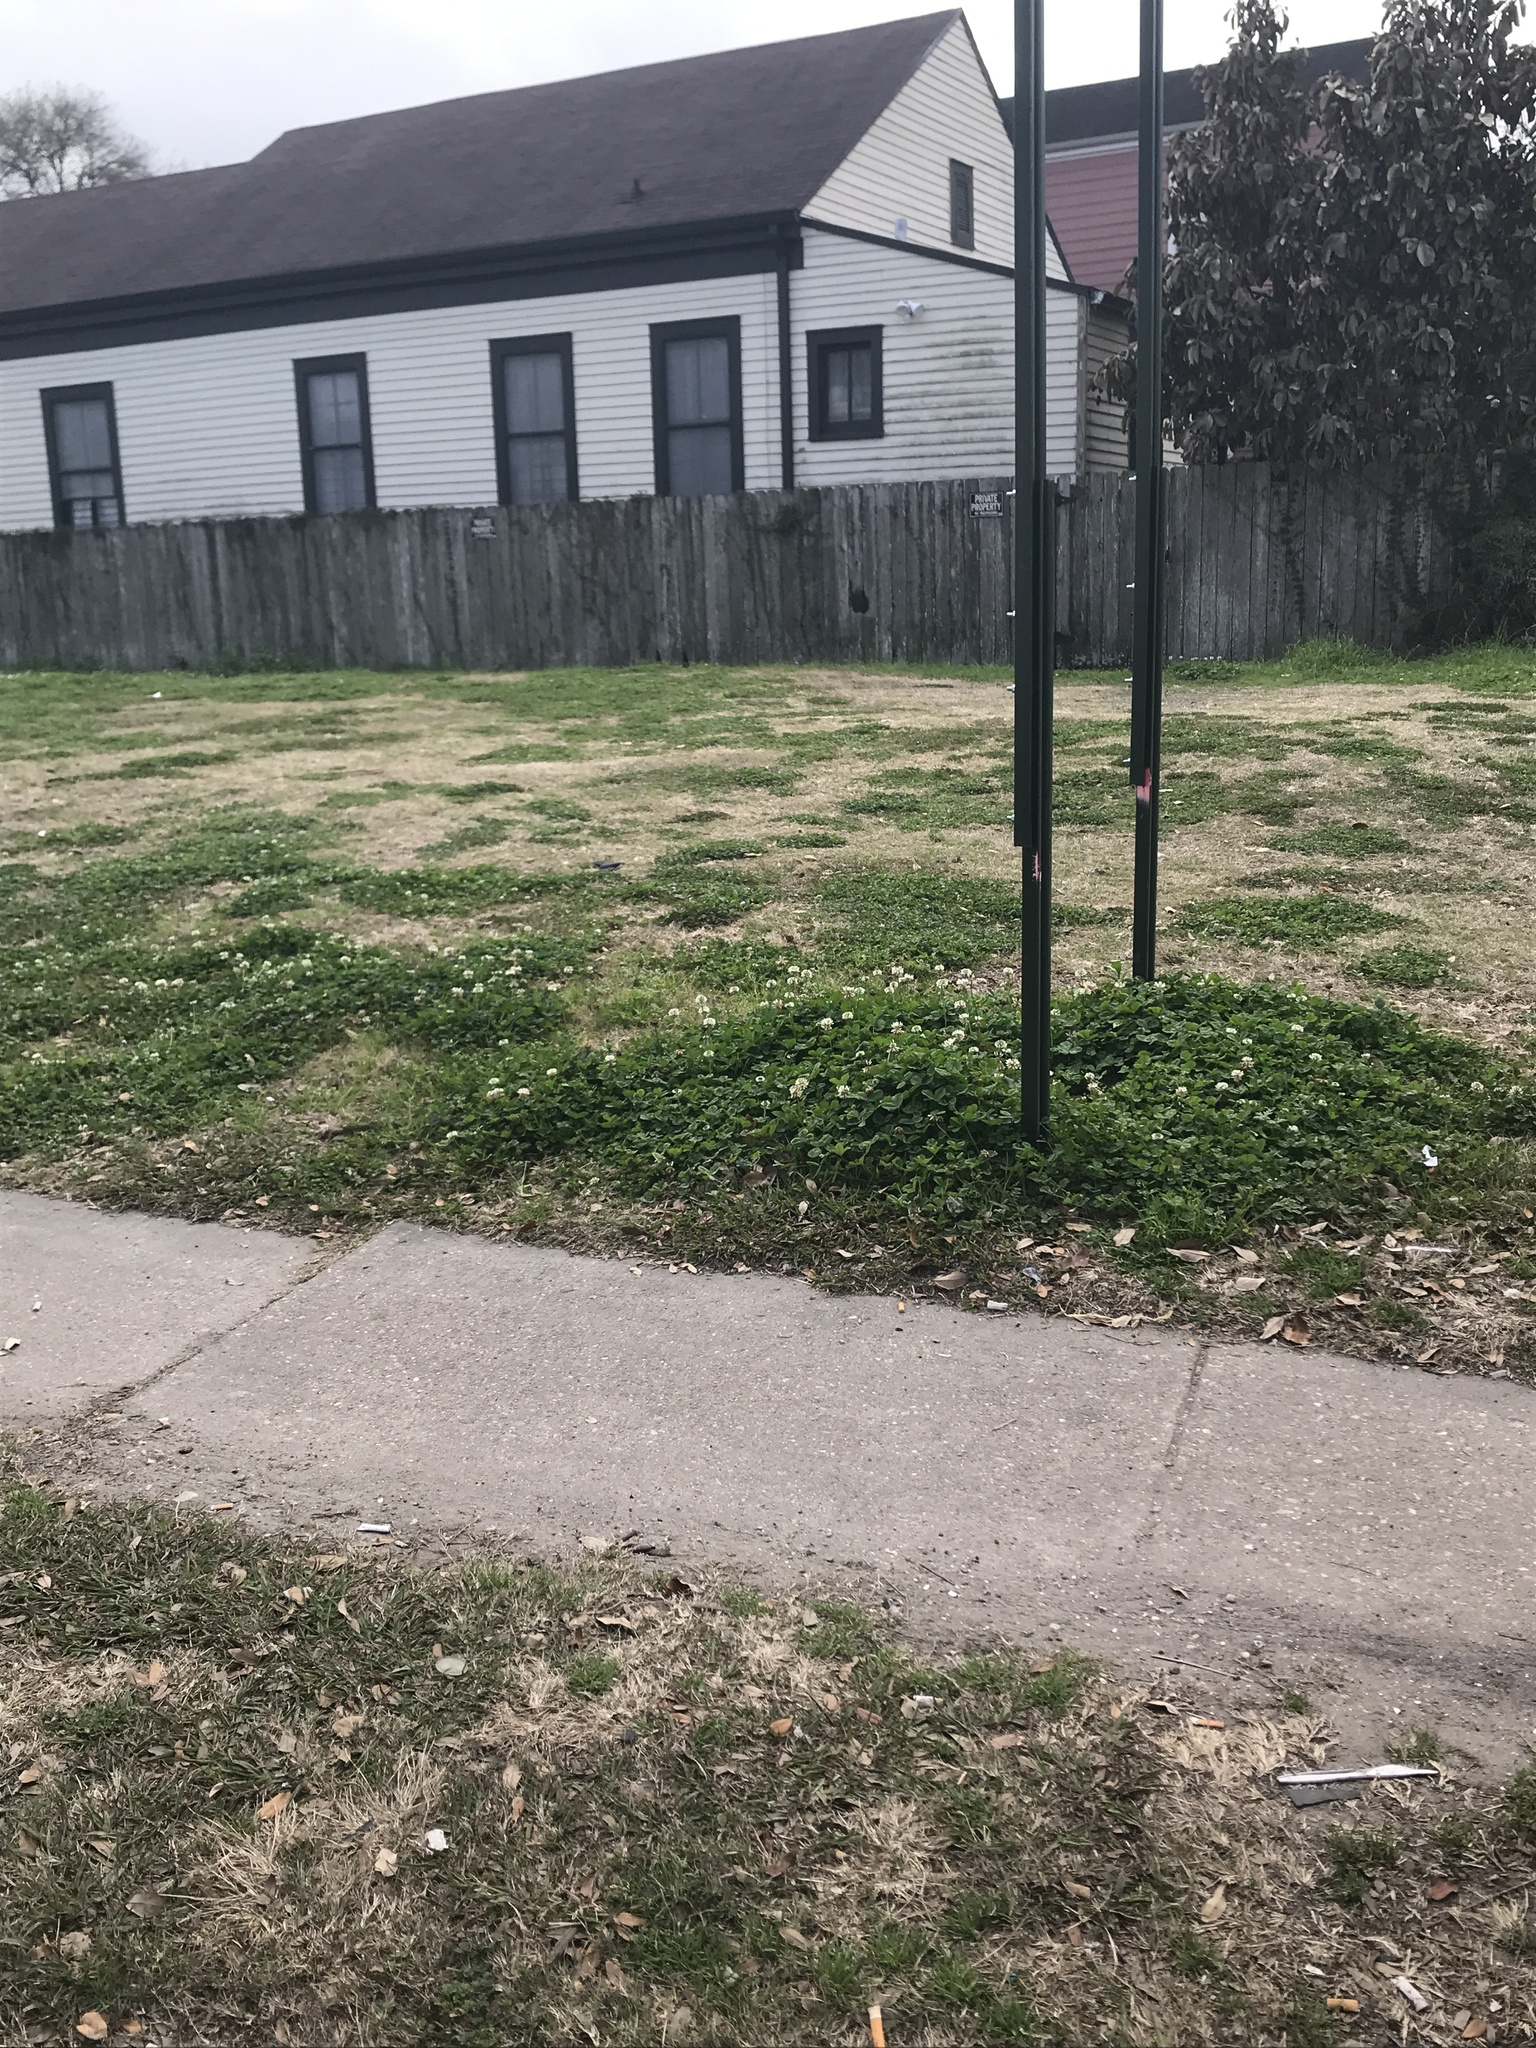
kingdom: Plantae
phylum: Tracheophyta
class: Magnoliopsida
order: Fabales
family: Fabaceae
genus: Trifolium
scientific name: Trifolium repens
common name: White clover
